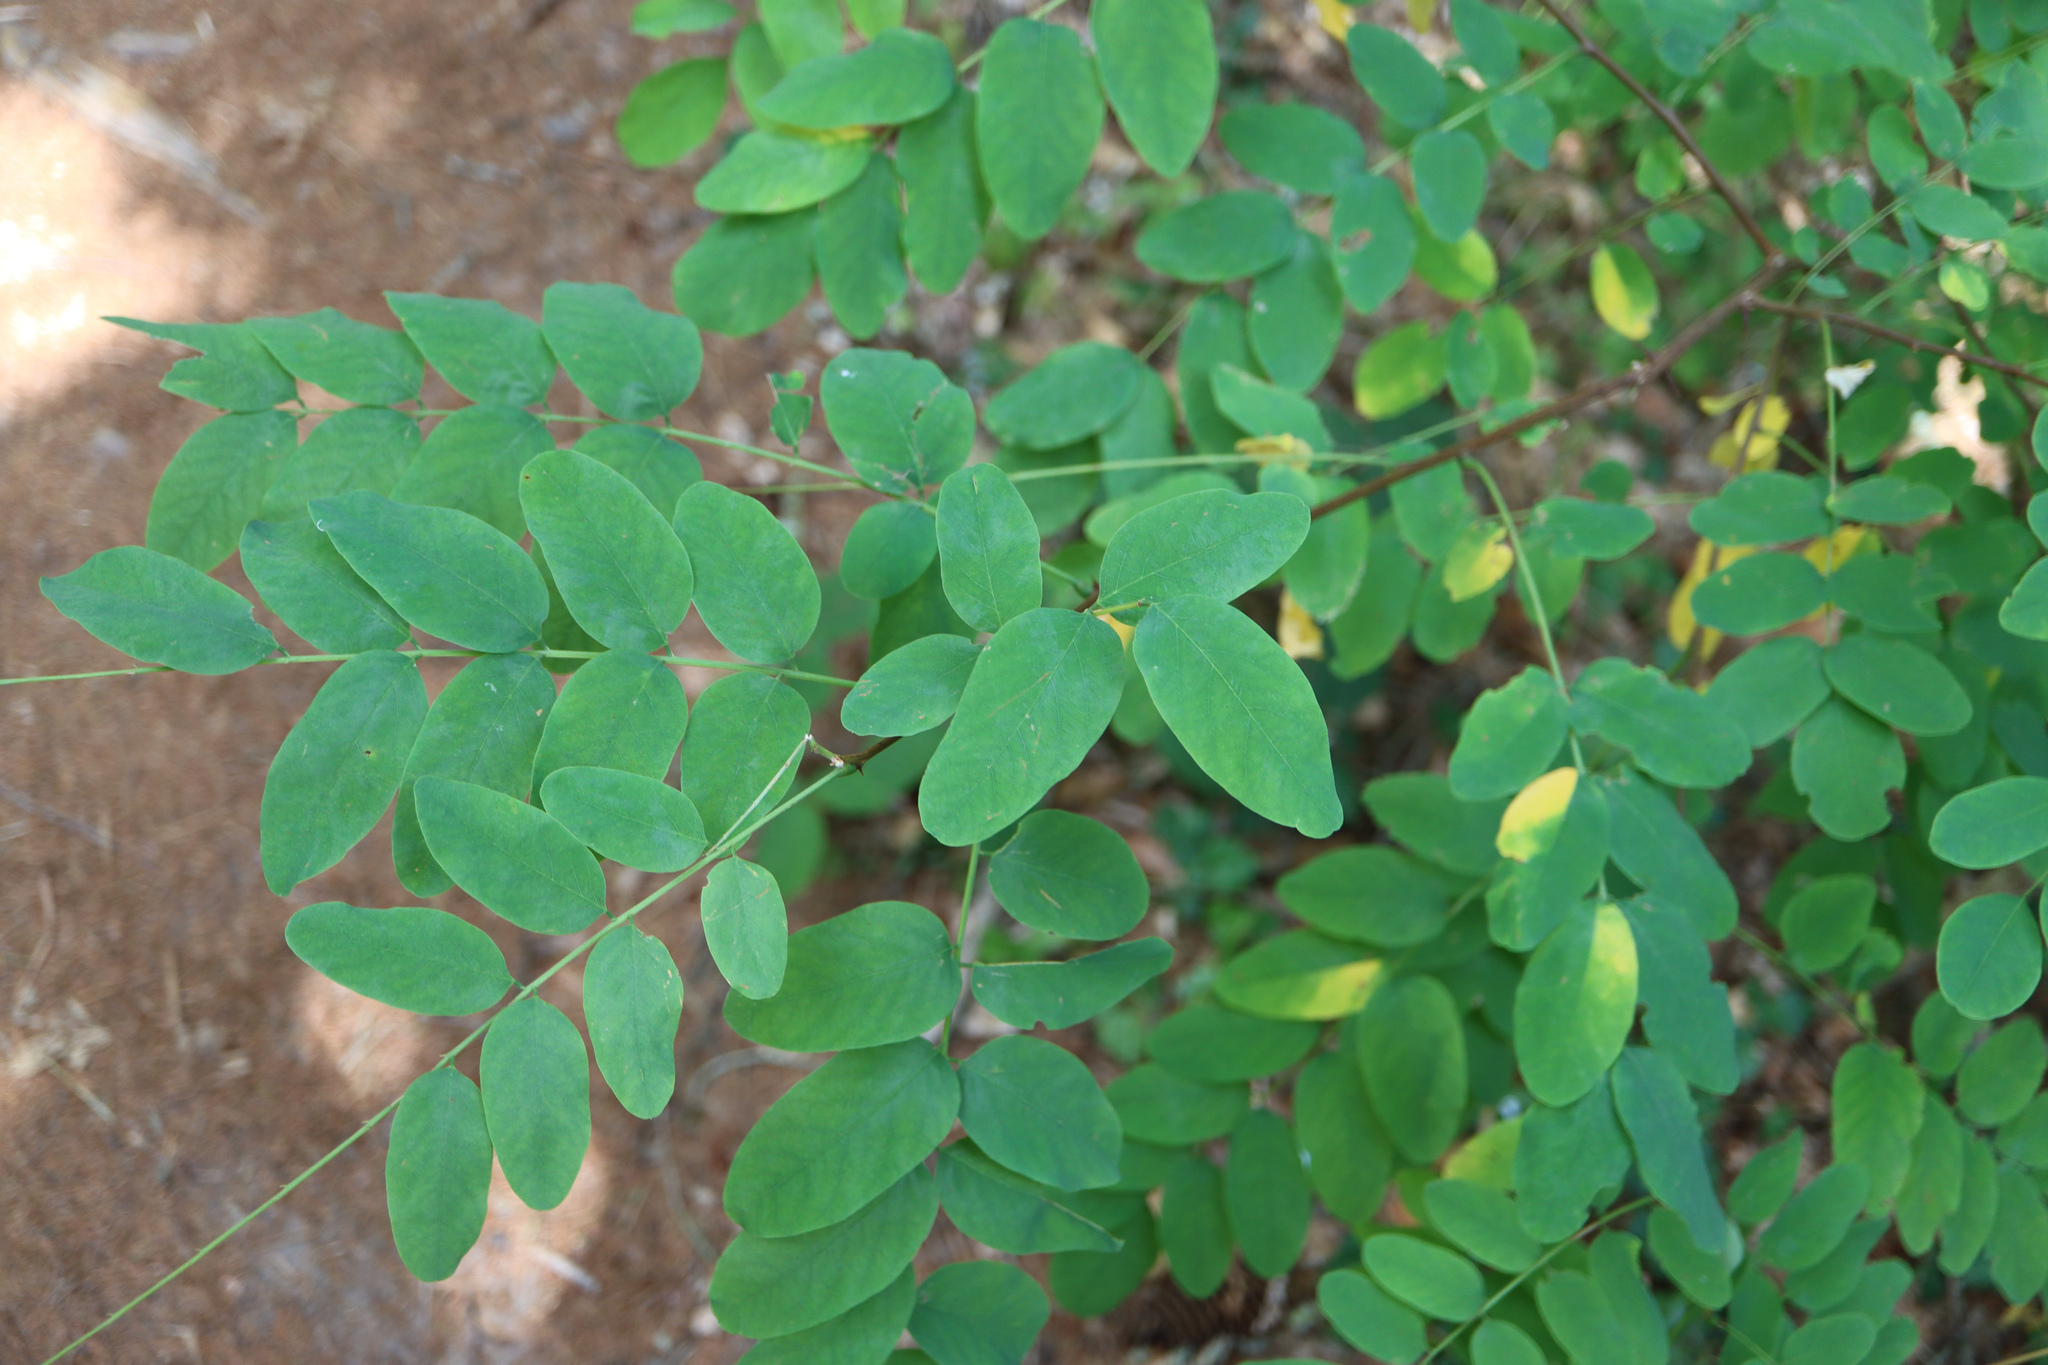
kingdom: Plantae
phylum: Tracheophyta
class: Magnoliopsida
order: Fabales
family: Fabaceae
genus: Robinia
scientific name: Robinia pseudoacacia
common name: Black locust
